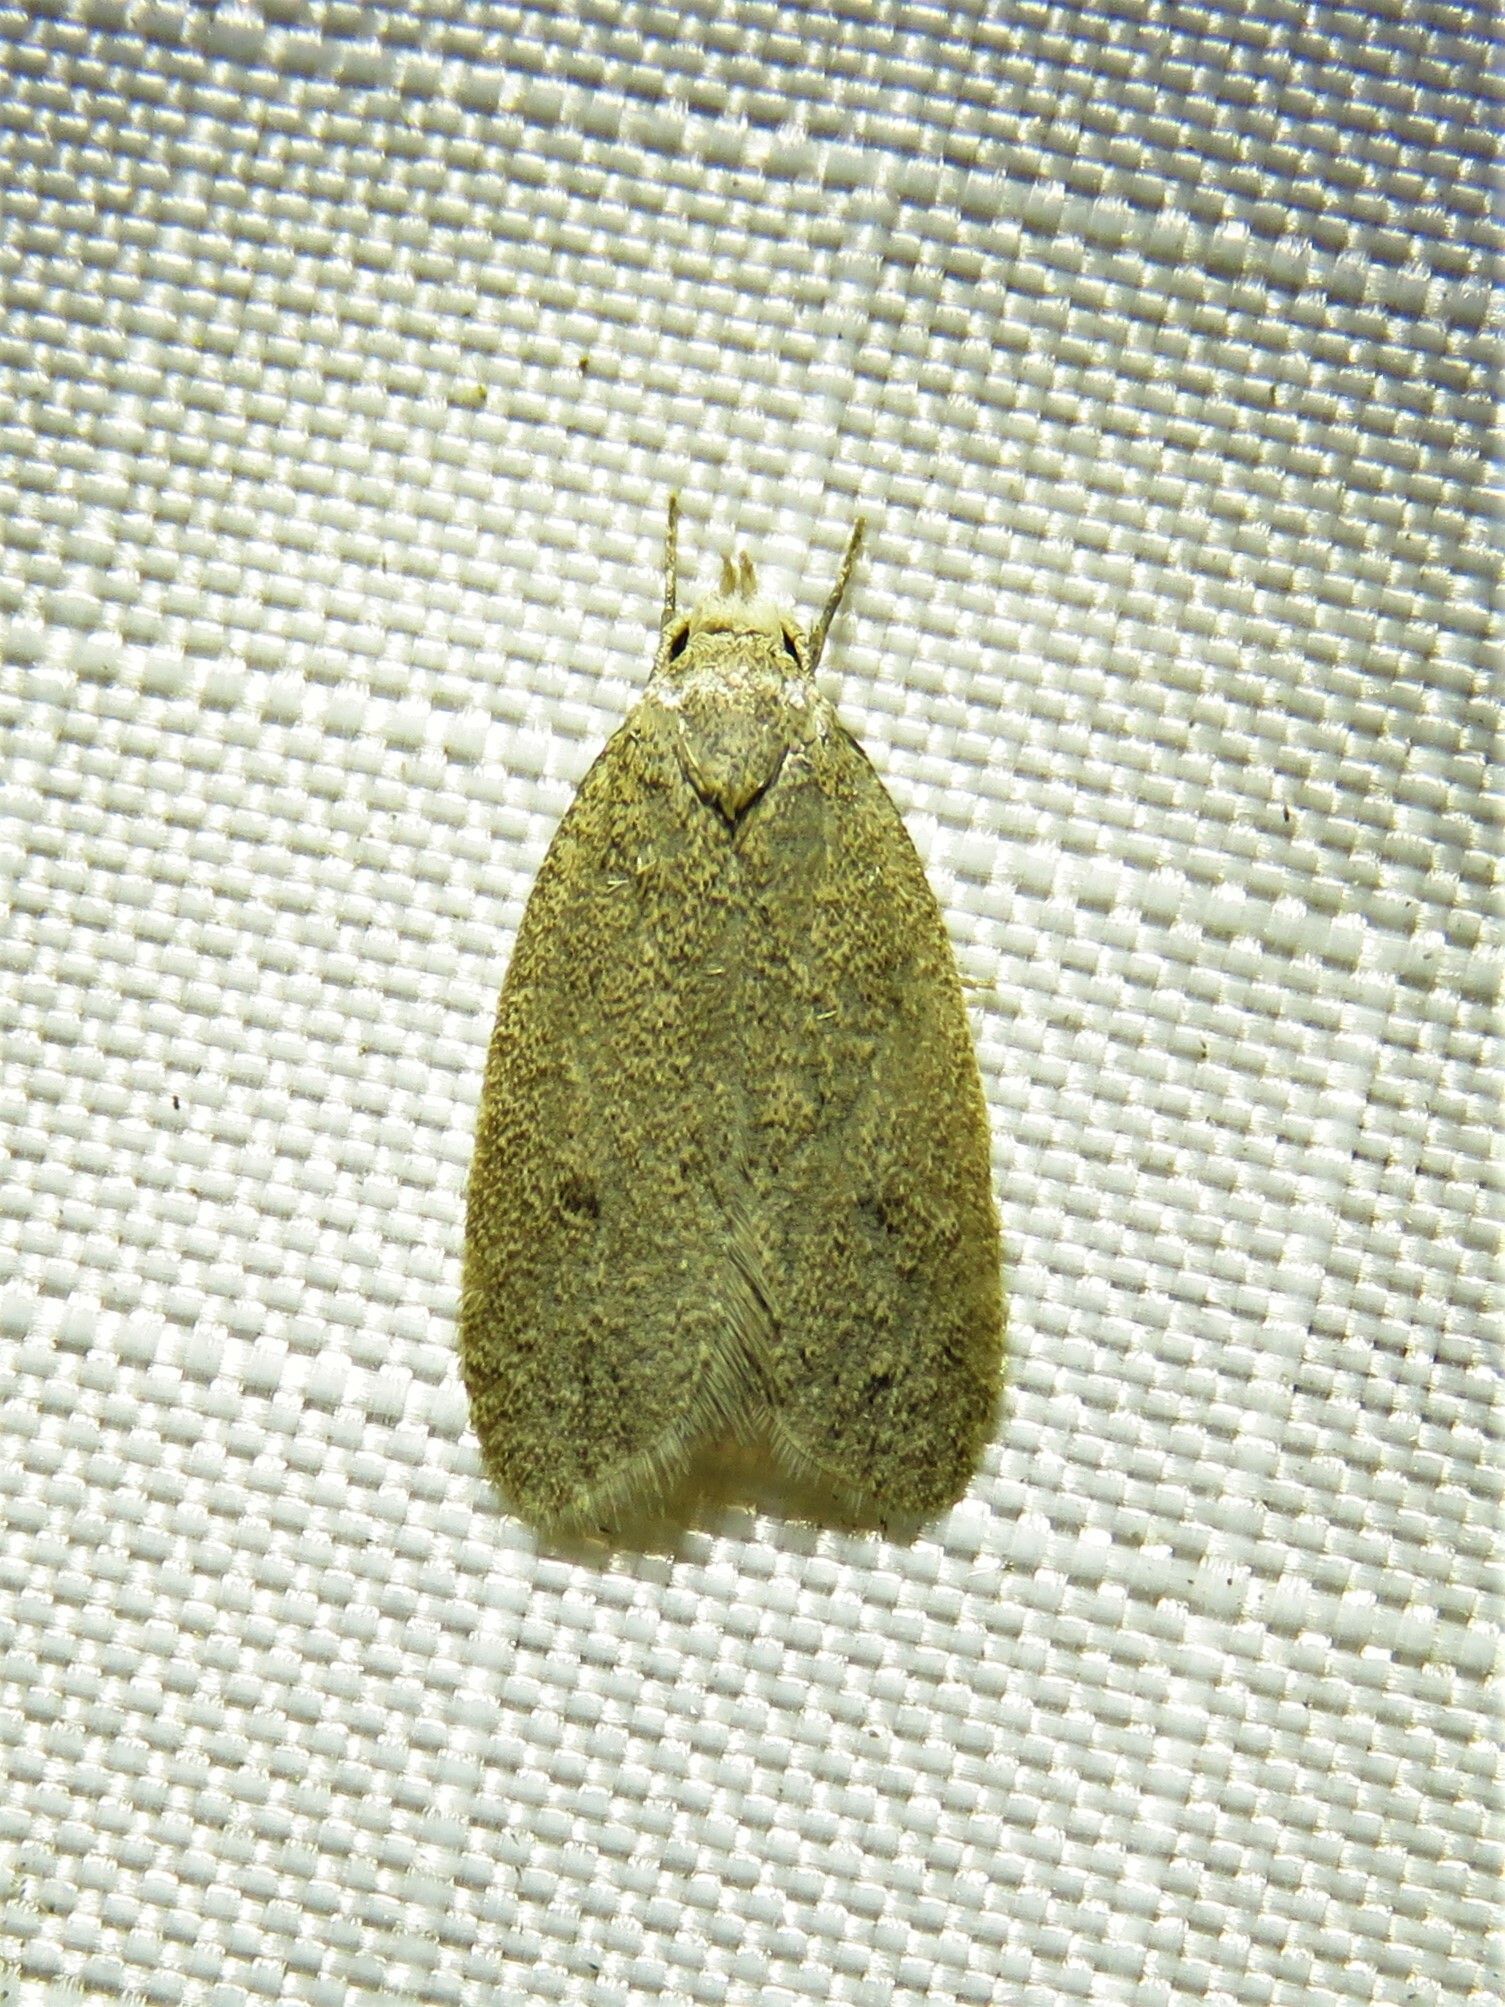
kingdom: Animalia
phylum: Arthropoda
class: Insecta
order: Lepidoptera
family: Oecophoridae
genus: Inga
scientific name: Inga obscuromaculella
